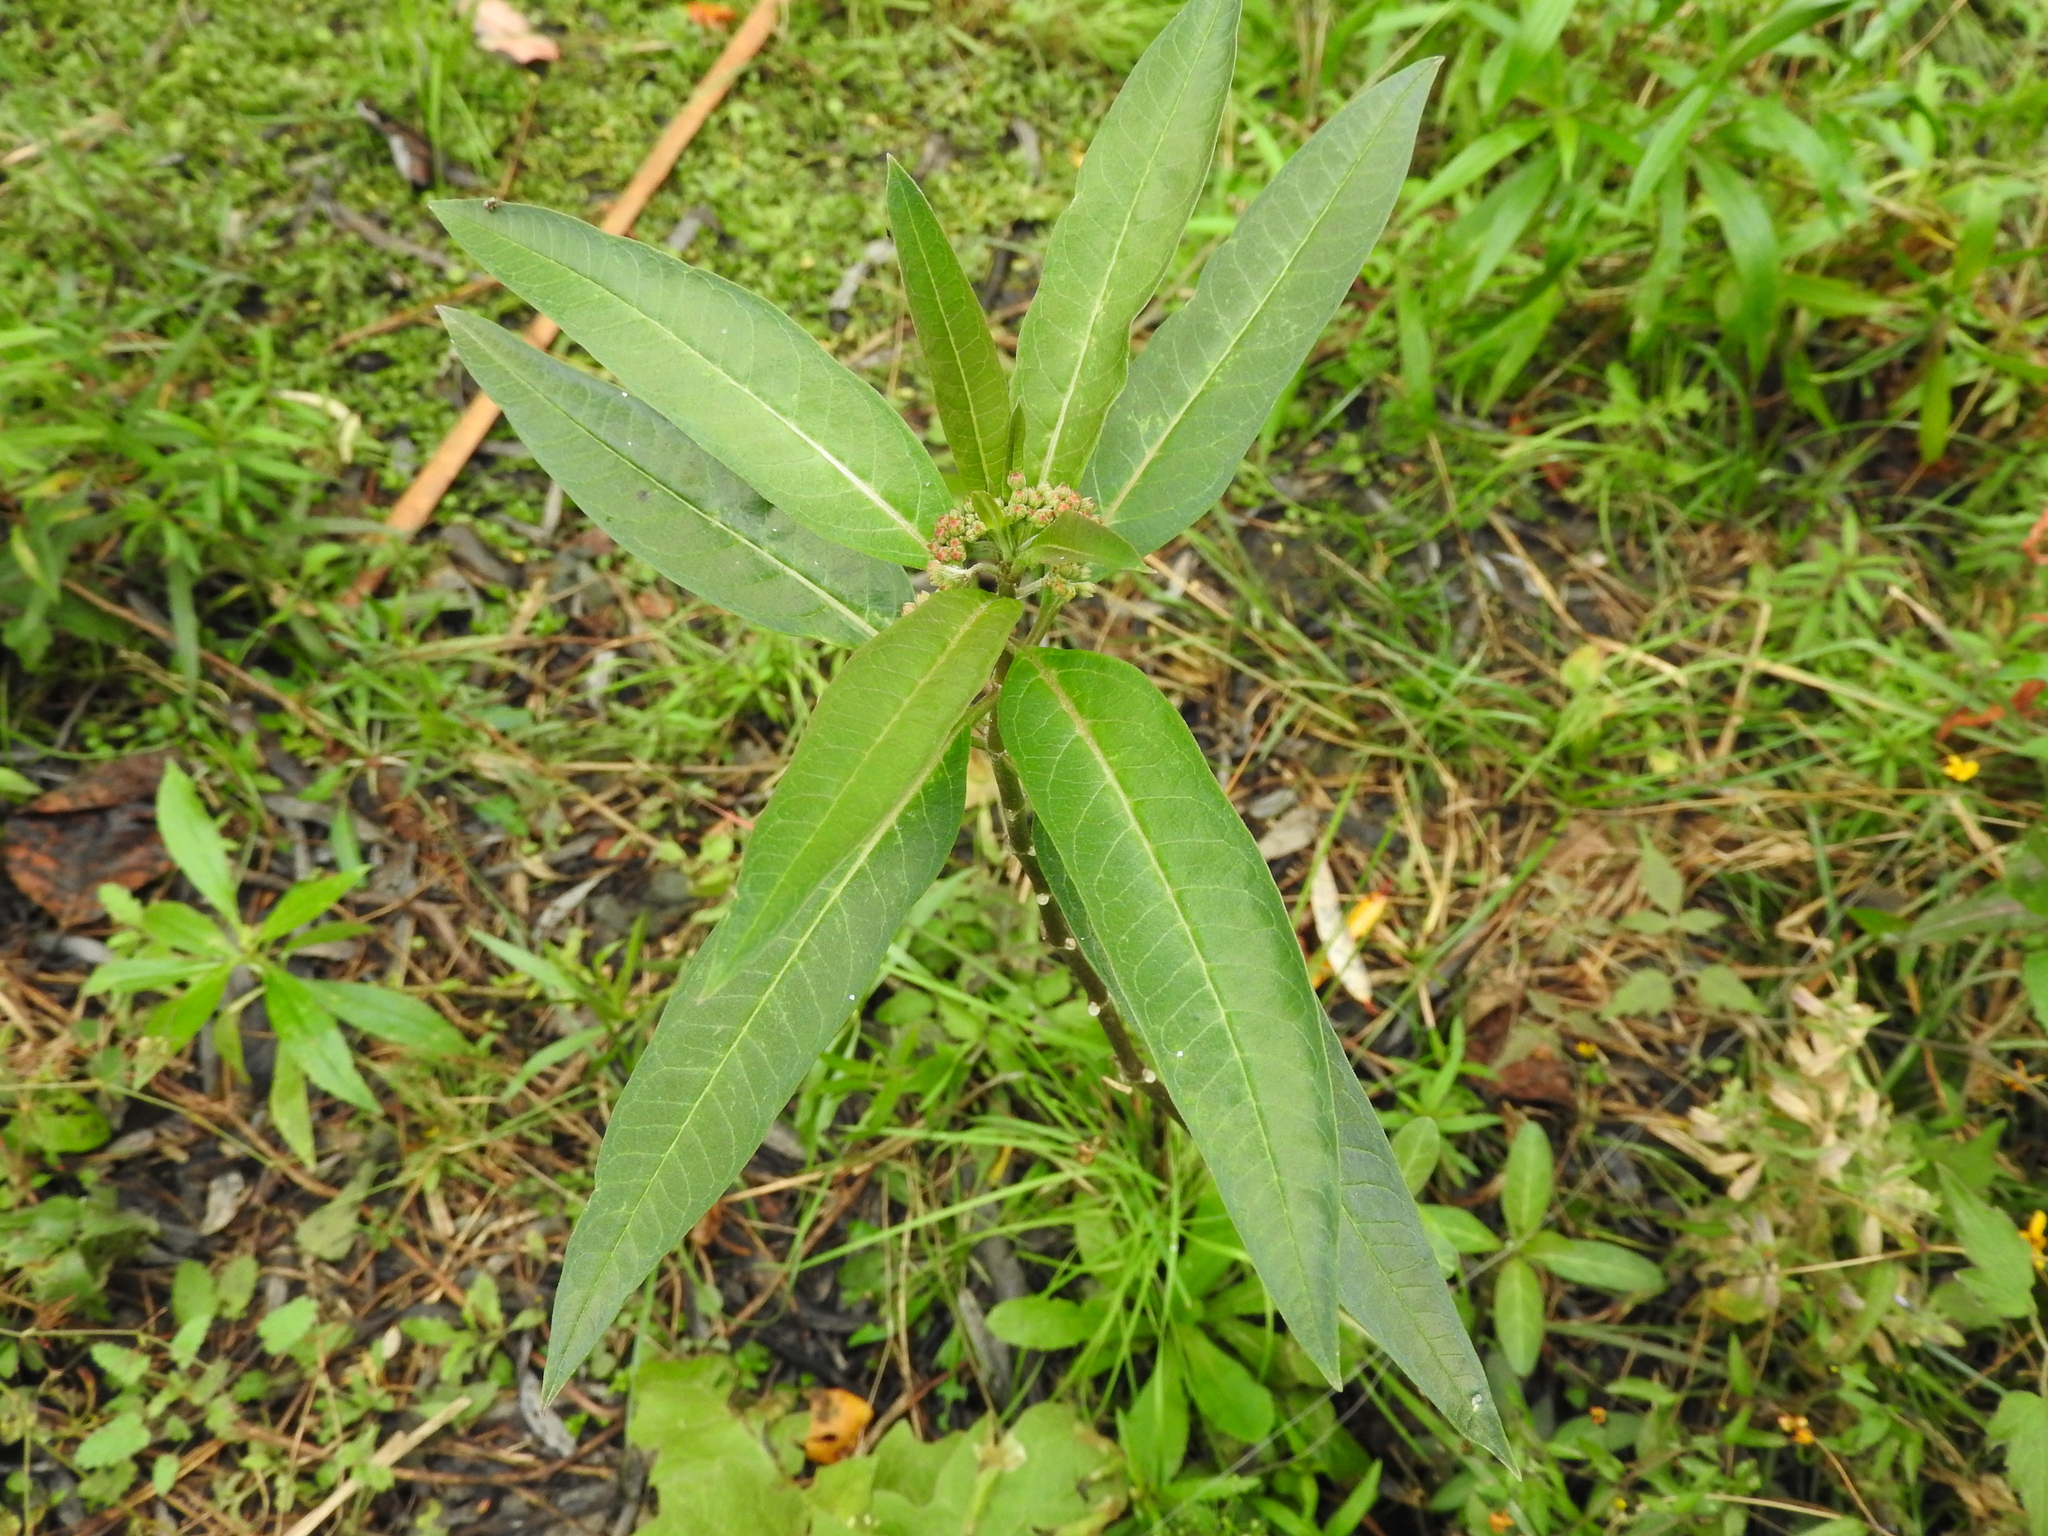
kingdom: Plantae
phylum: Tracheophyta
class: Magnoliopsida
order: Gentianales
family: Apocynaceae
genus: Asclepias
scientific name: Asclepias curassavica
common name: Bloodflower
